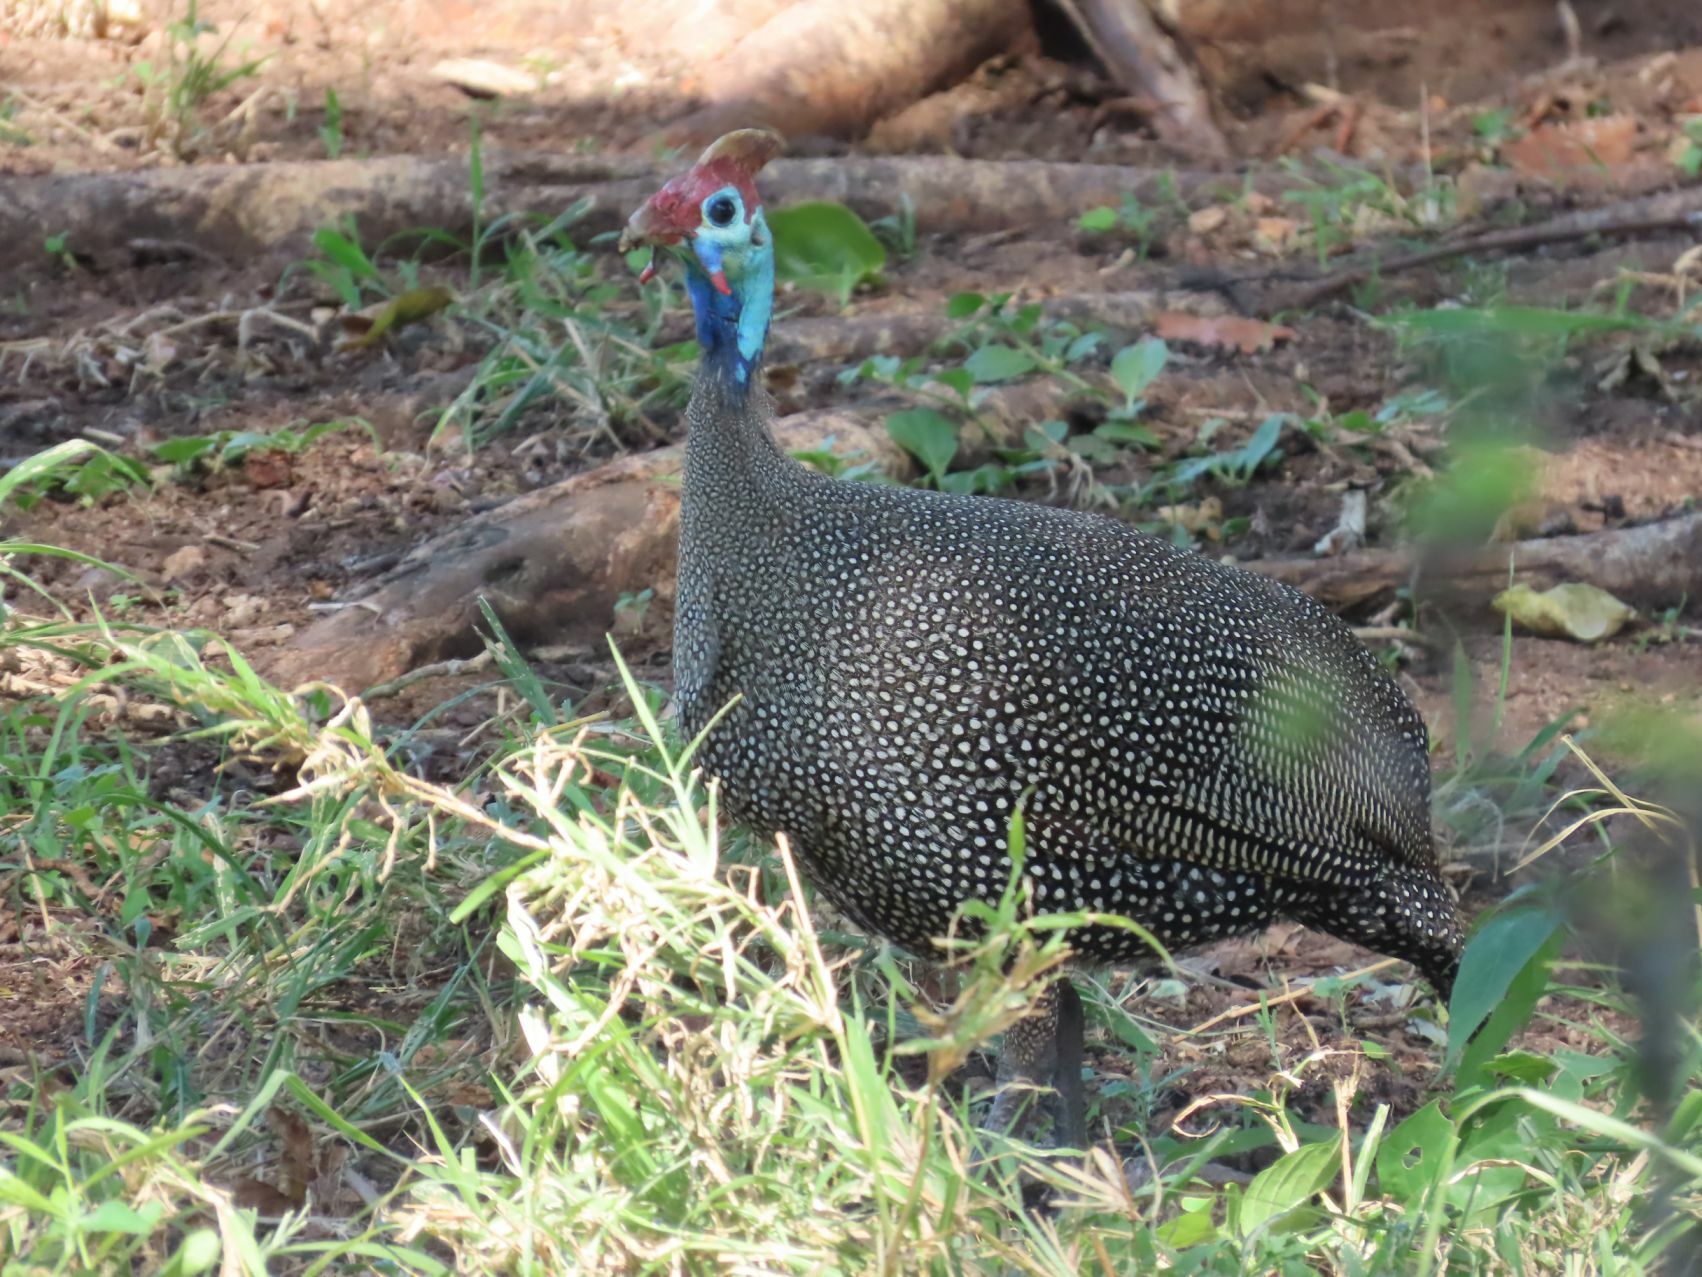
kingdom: Animalia
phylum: Chordata
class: Aves
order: Galliformes
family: Numididae
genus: Numida
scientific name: Numida meleagris
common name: Helmeted guineafowl
